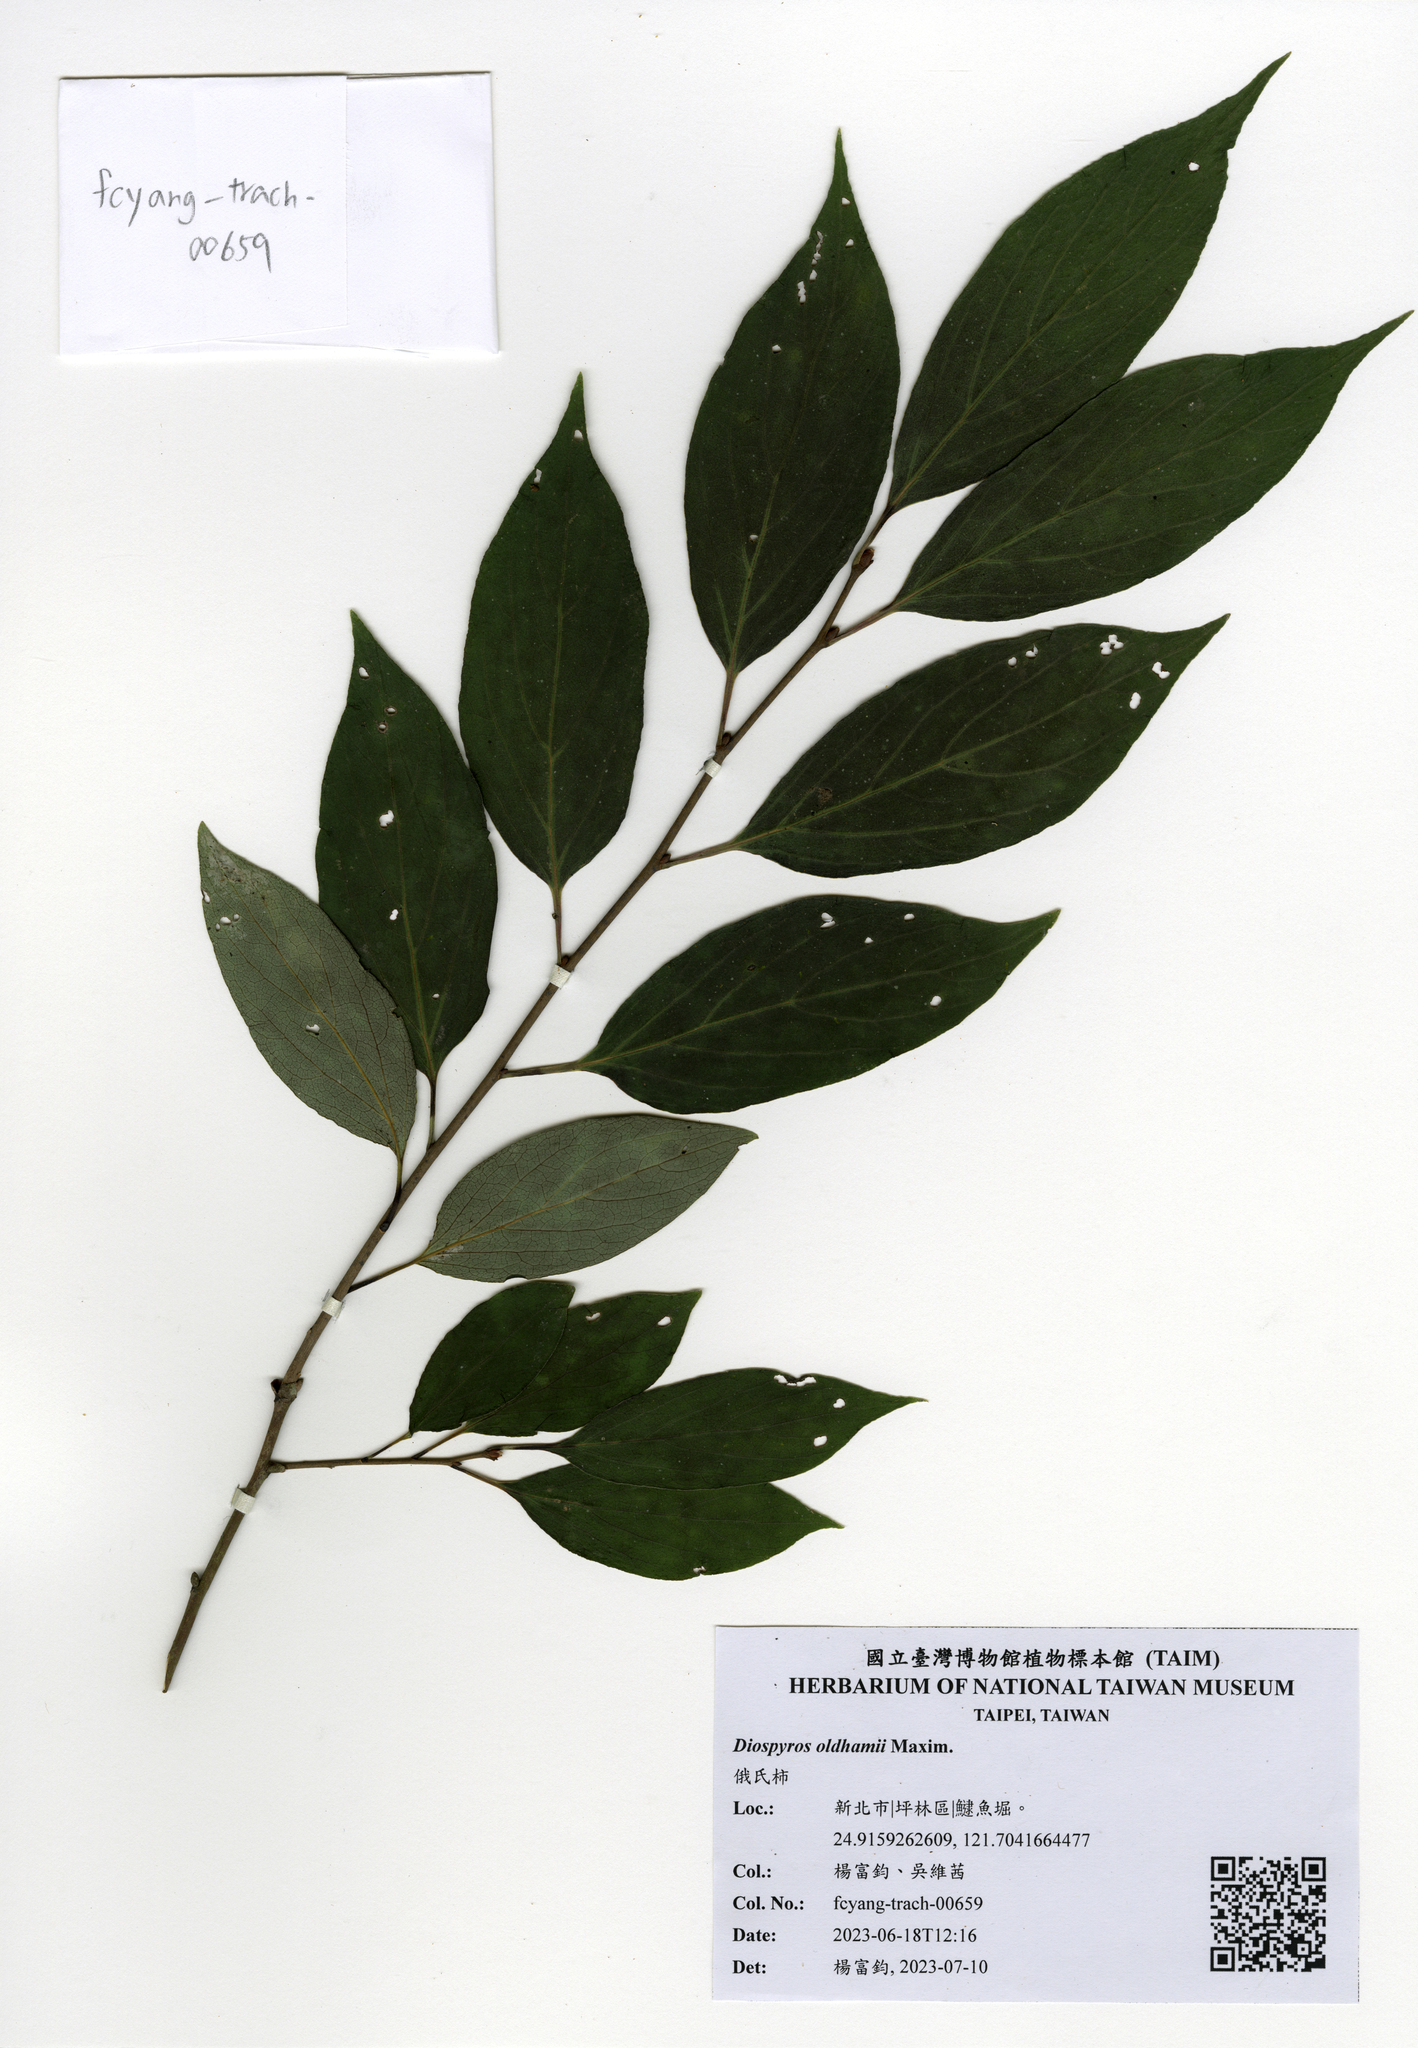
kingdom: Plantae
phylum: Tracheophyta
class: Magnoliopsida
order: Ericales
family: Ebenaceae
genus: Diospyros
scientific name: Diospyros oldhamii
